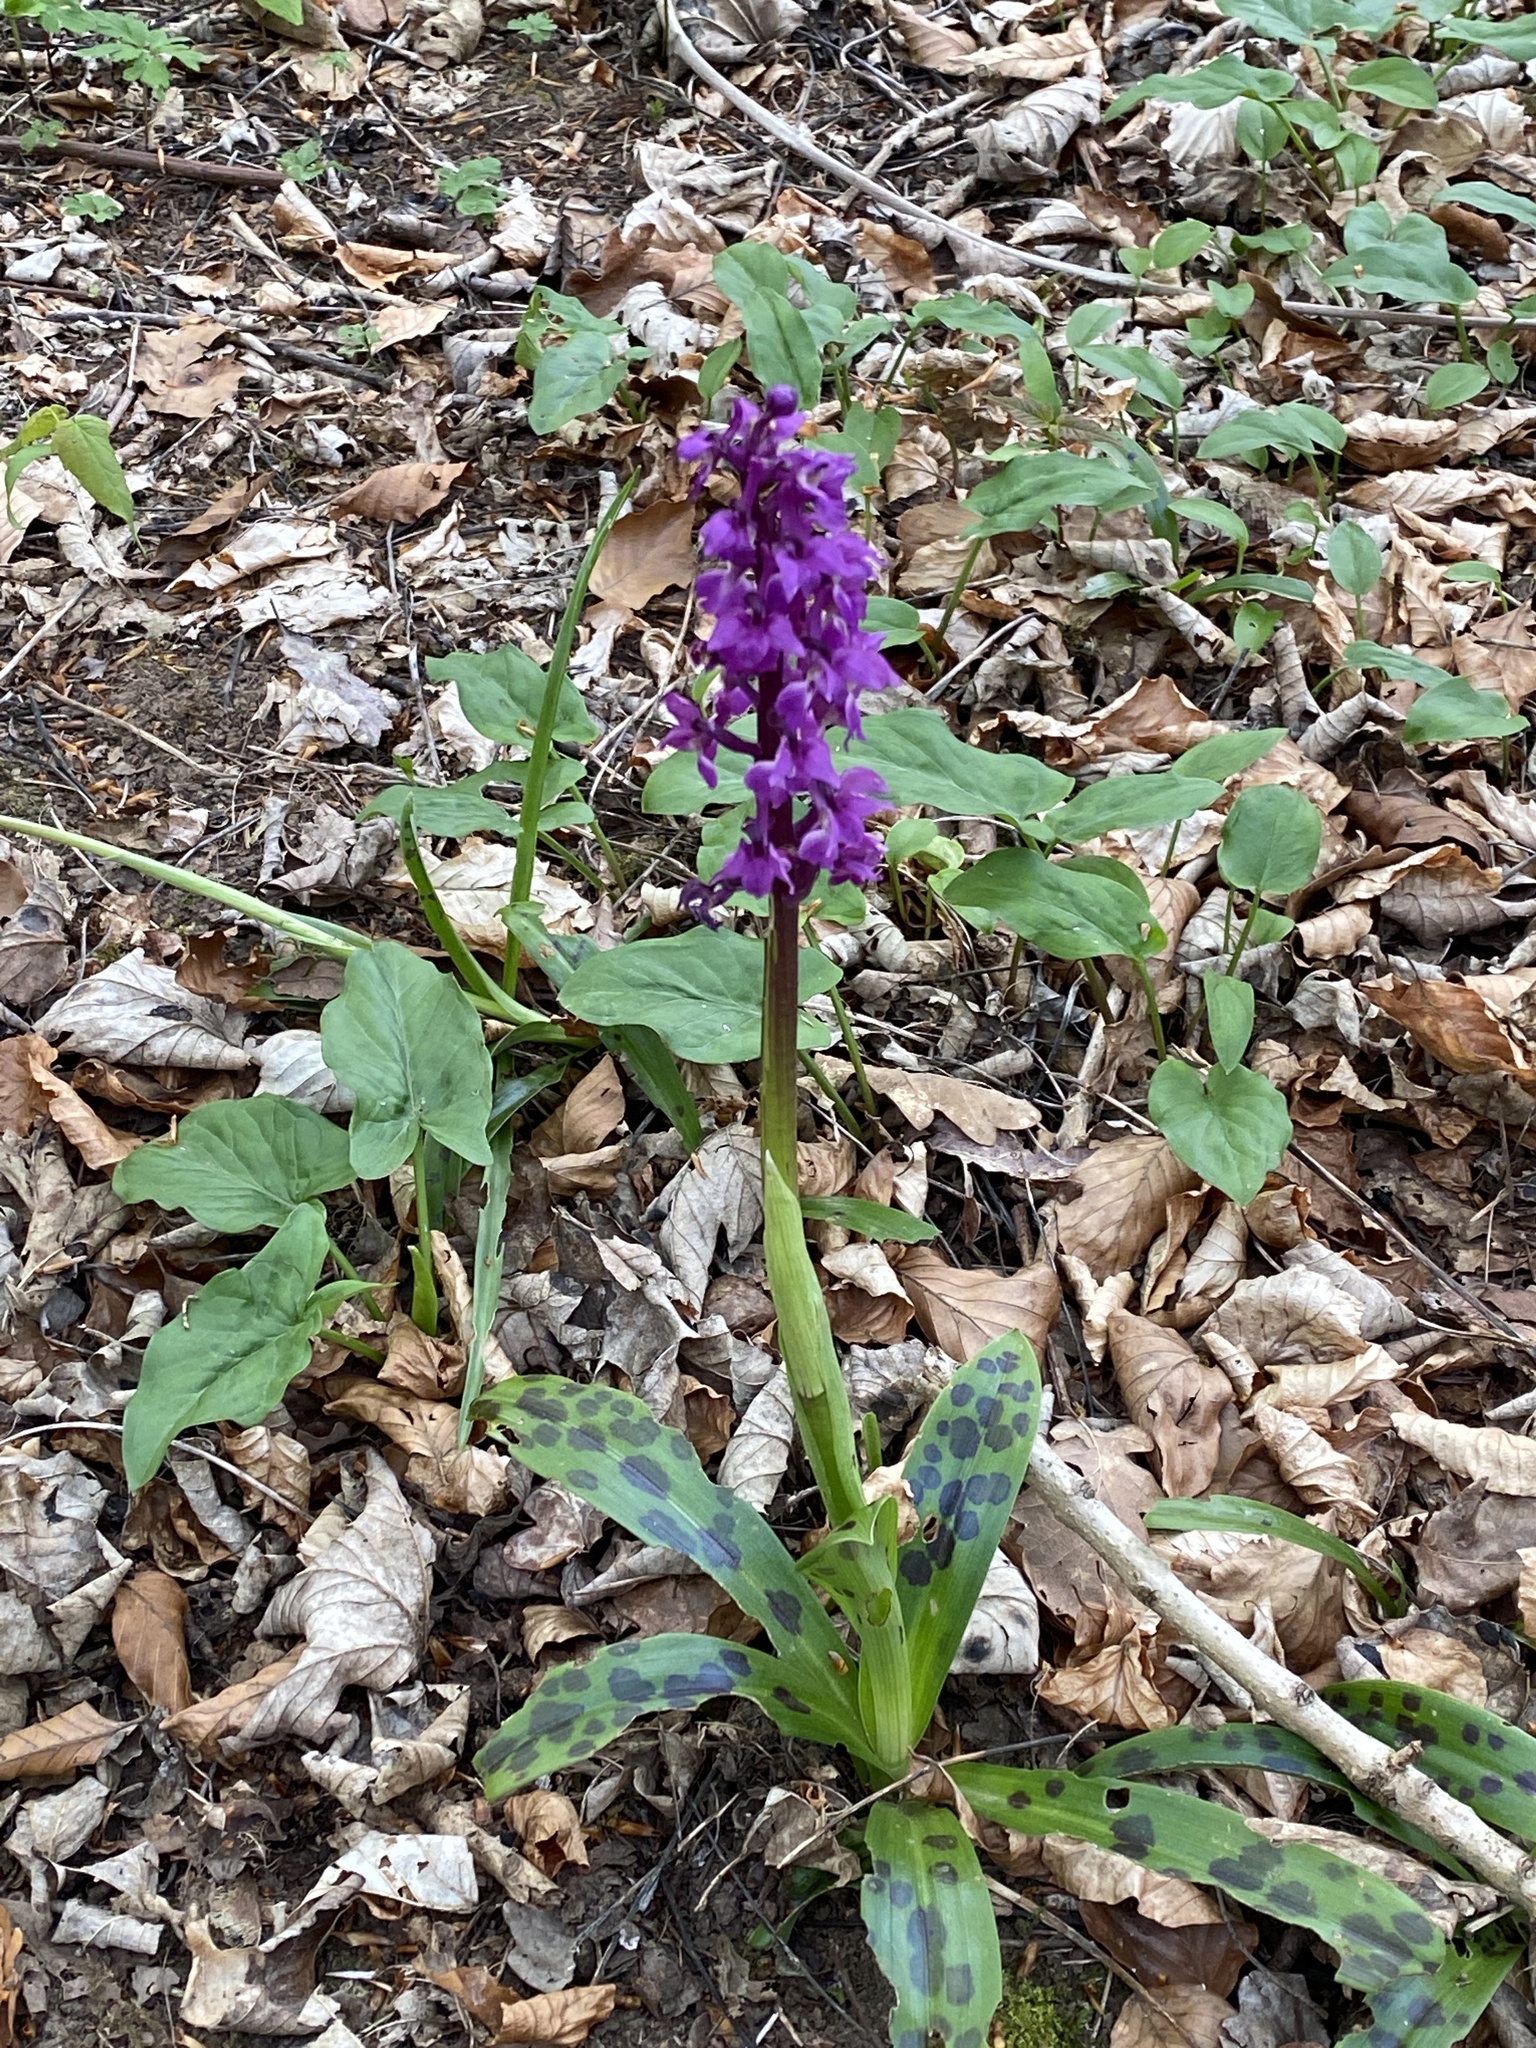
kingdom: Plantae
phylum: Tracheophyta
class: Liliopsida
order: Asparagales
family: Orchidaceae
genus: Orchis
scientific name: Orchis mascula
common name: Early-purple orchid
